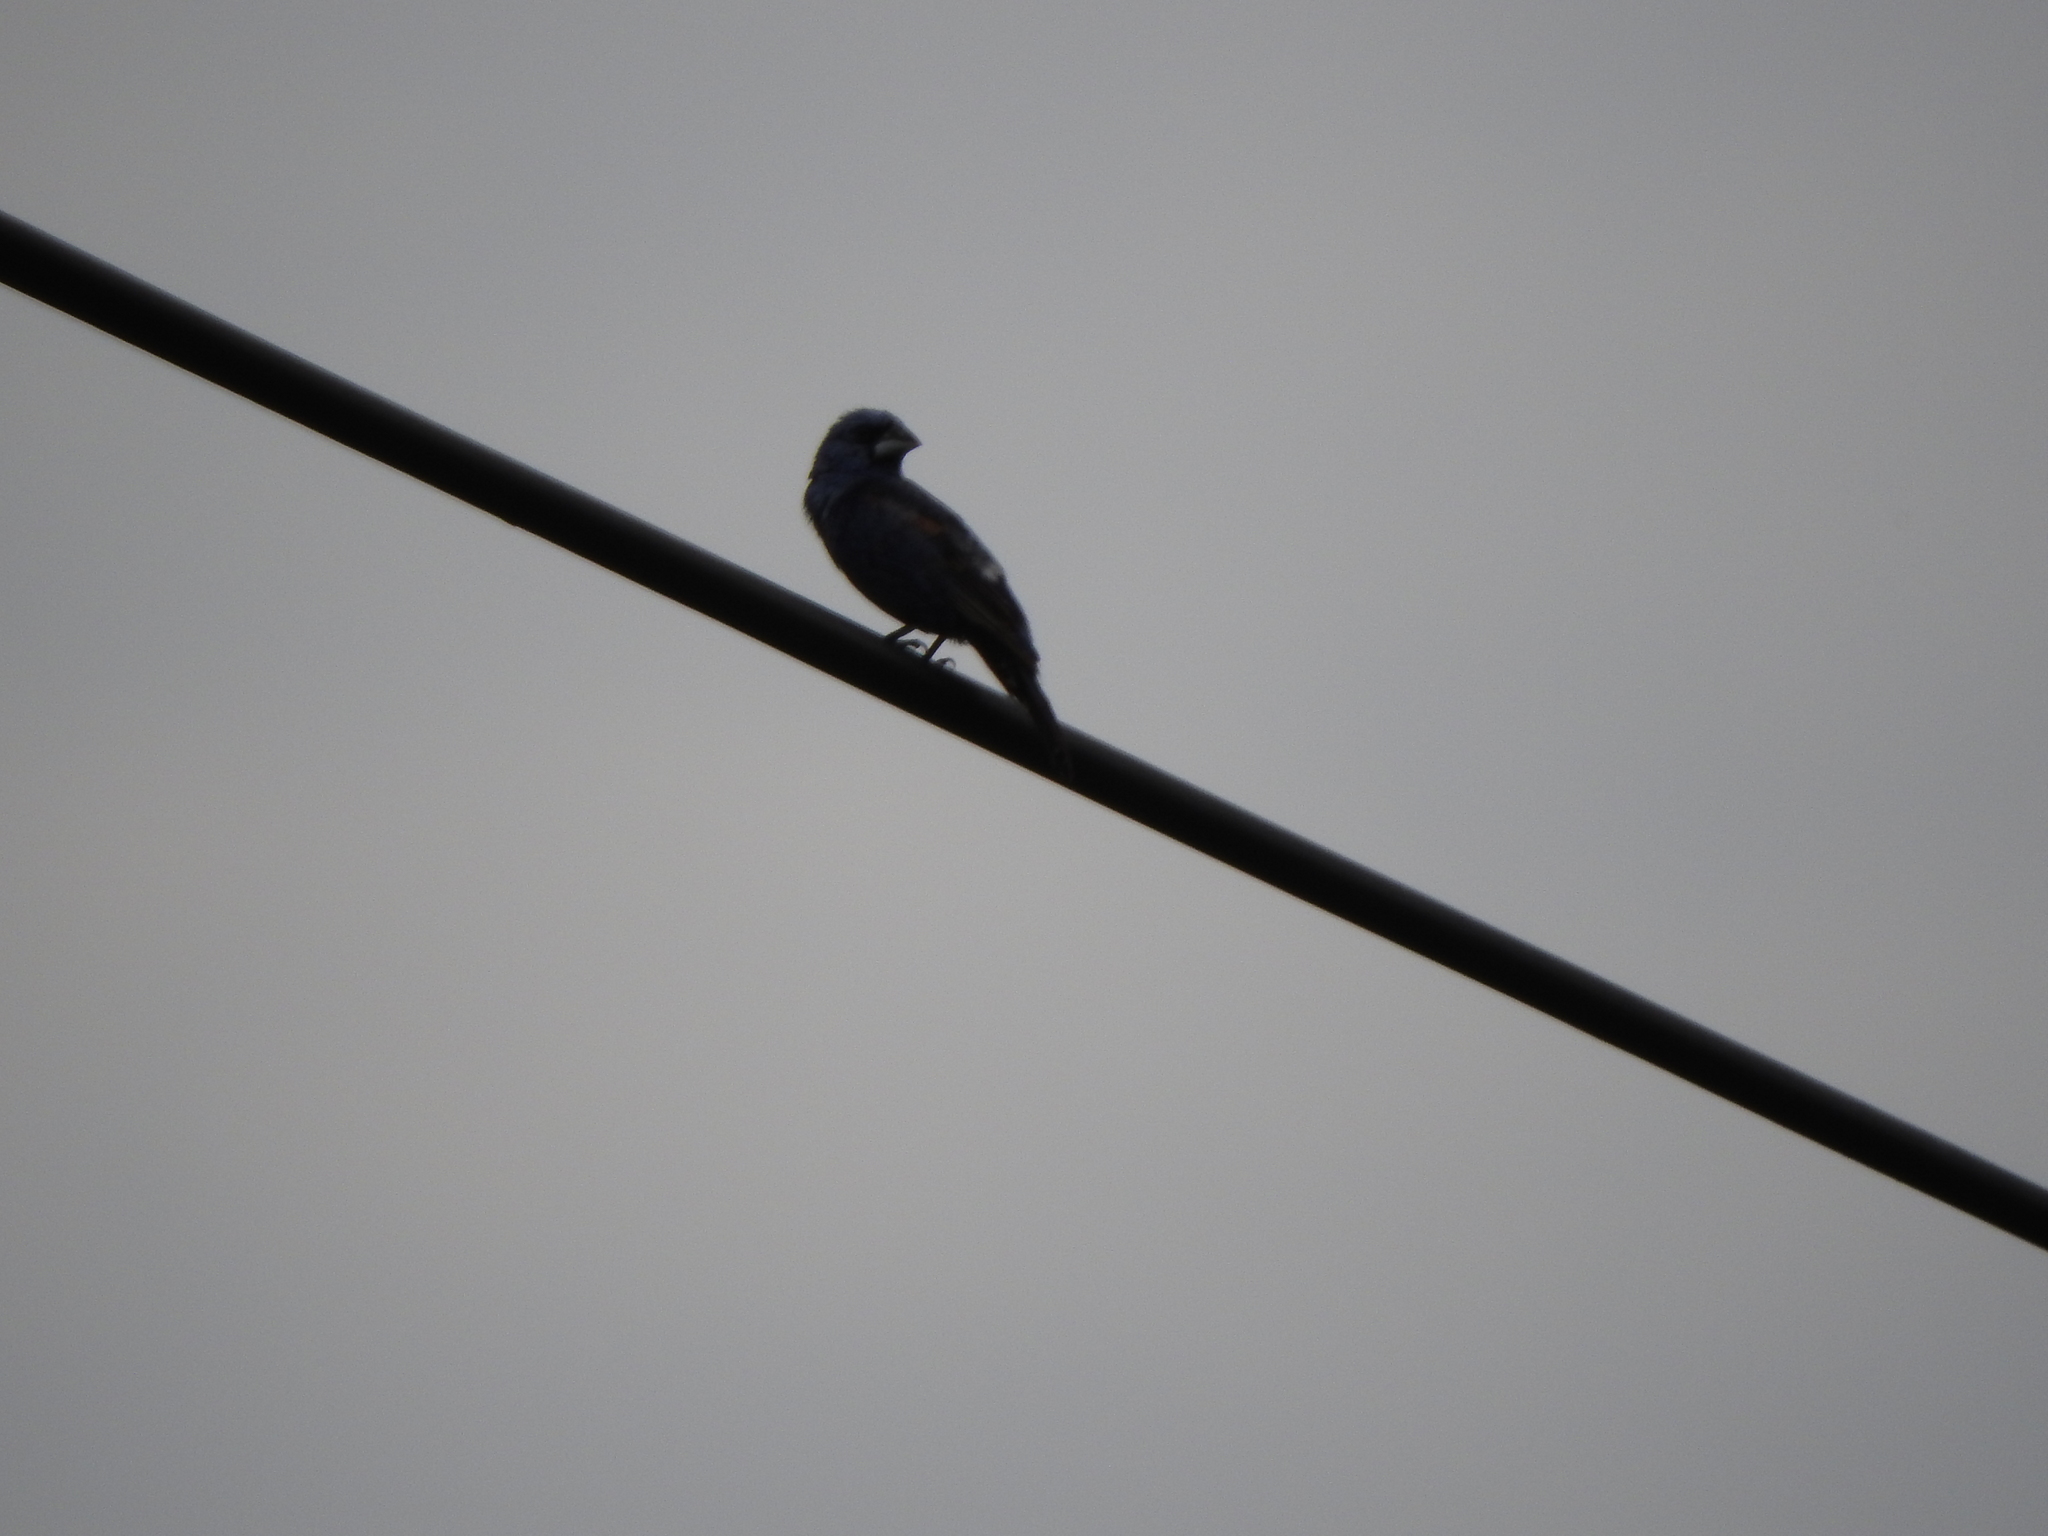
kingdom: Animalia
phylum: Chordata
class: Aves
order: Passeriformes
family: Cardinalidae
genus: Passerina
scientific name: Passerina caerulea
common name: Blue grosbeak
